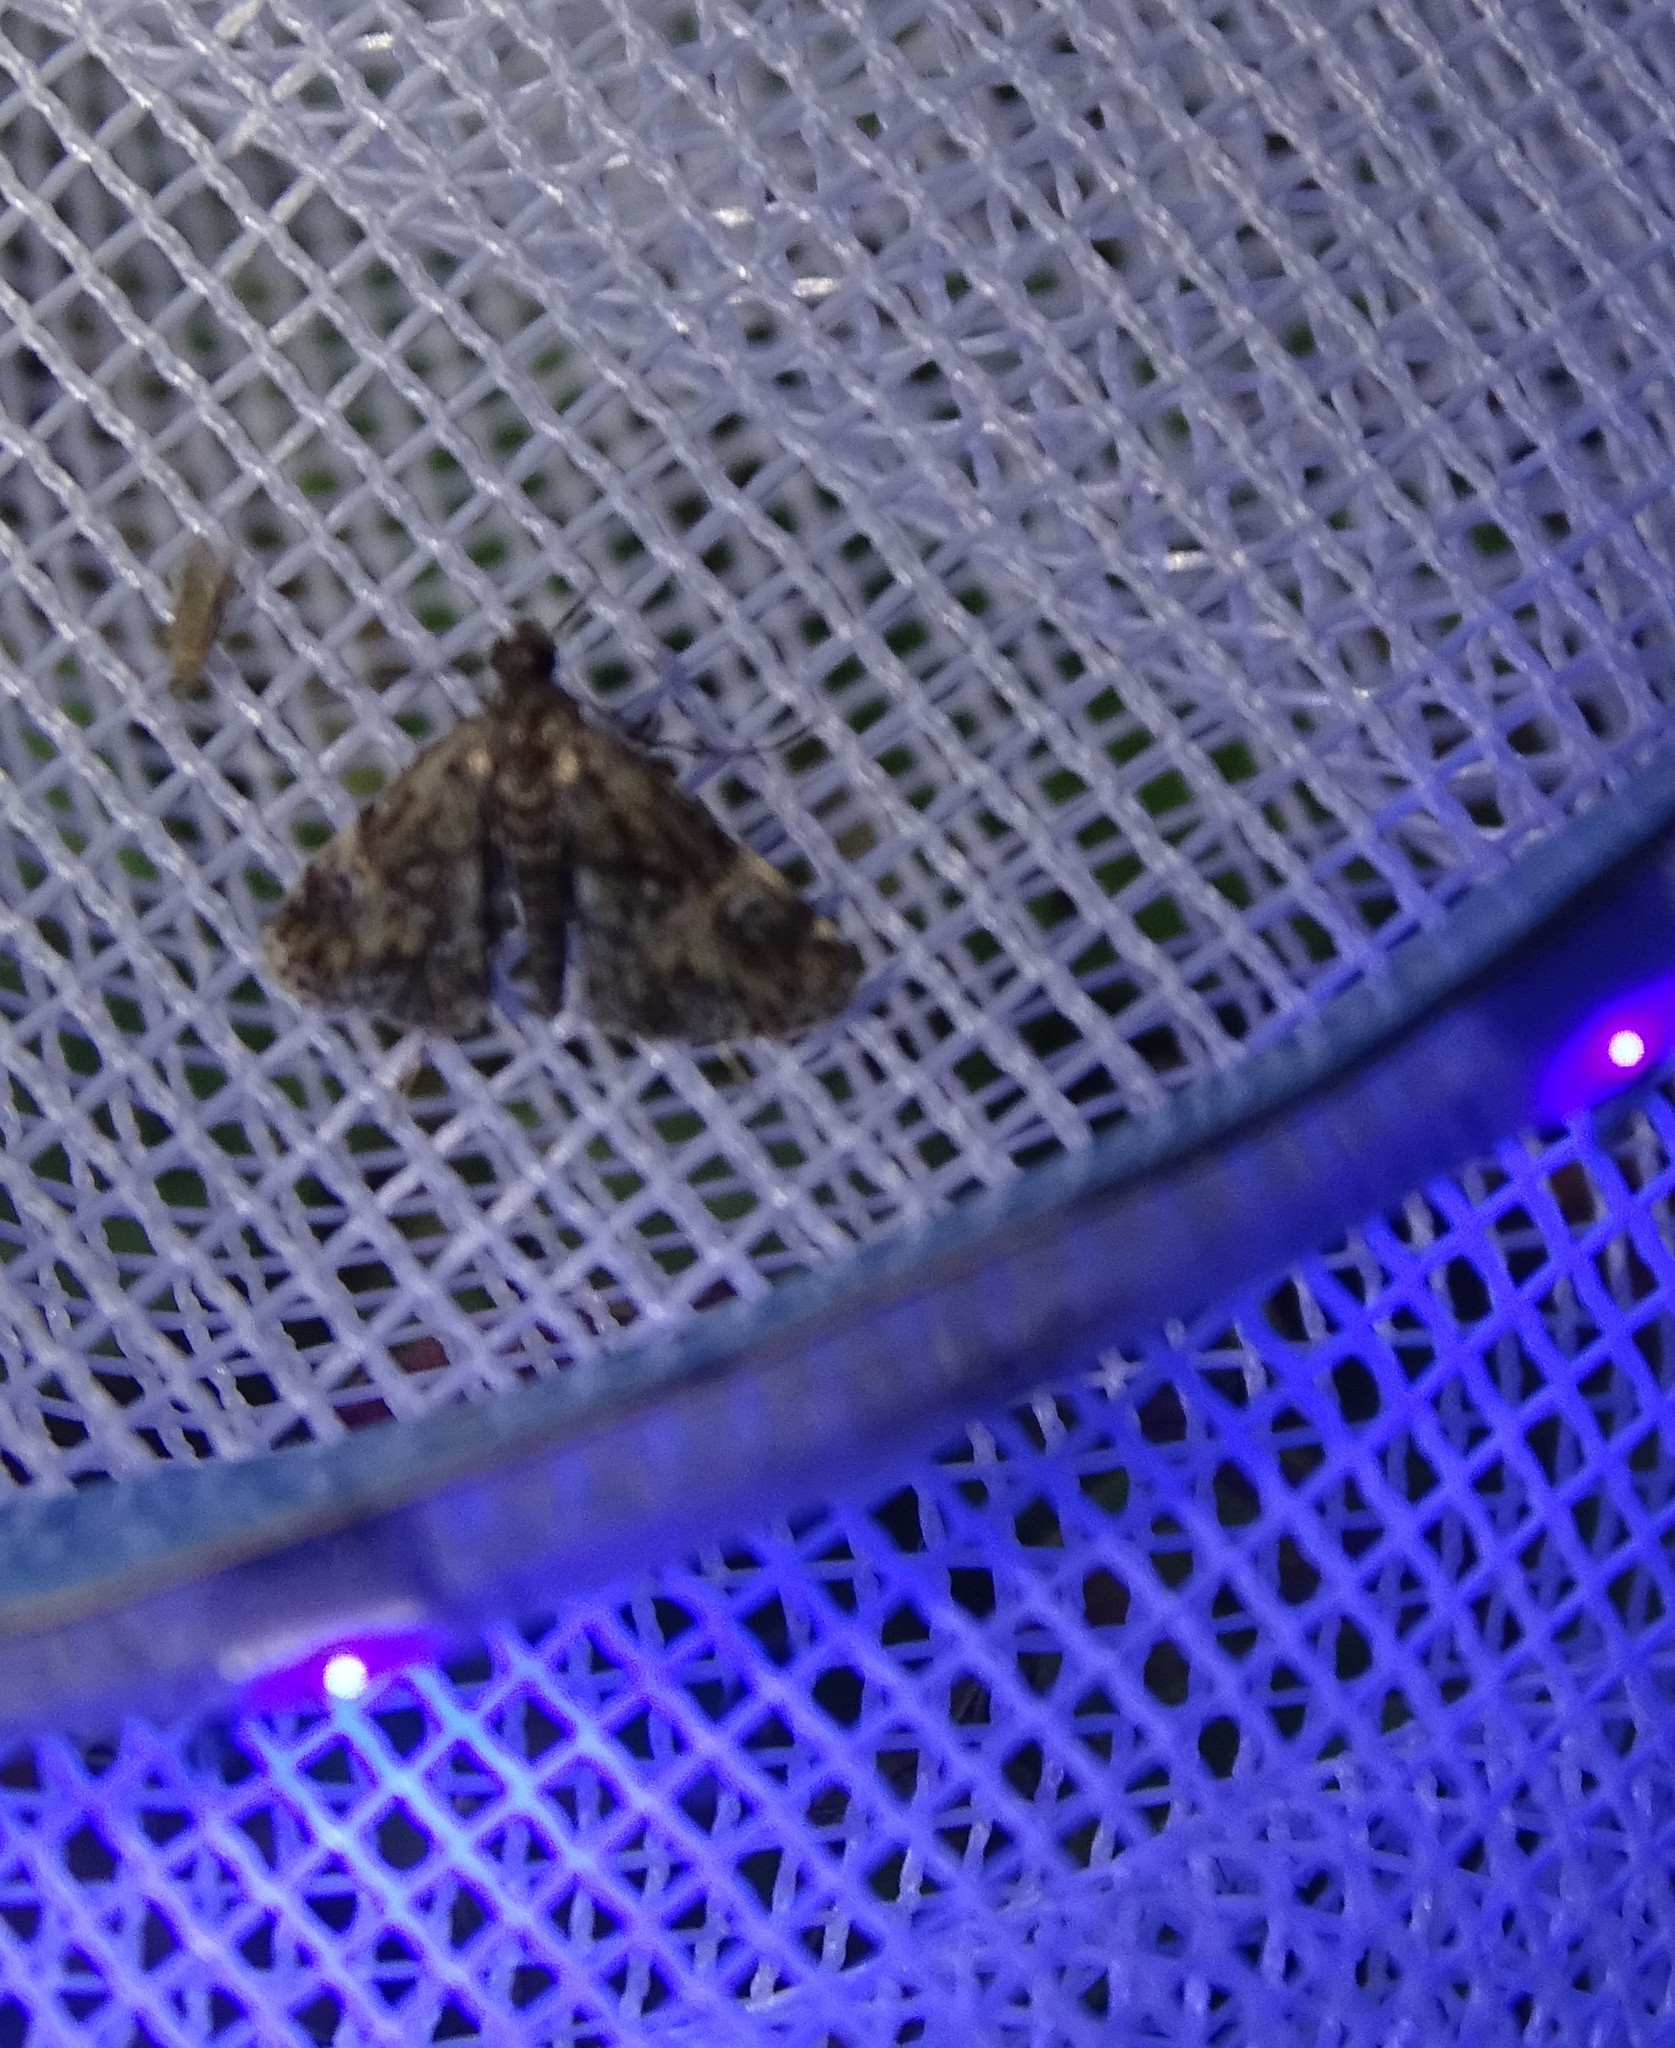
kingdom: Animalia
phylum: Arthropoda
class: Insecta
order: Lepidoptera
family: Crambidae
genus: Elophila
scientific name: Elophila obliteralis
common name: Waterlily leafcutter moth
